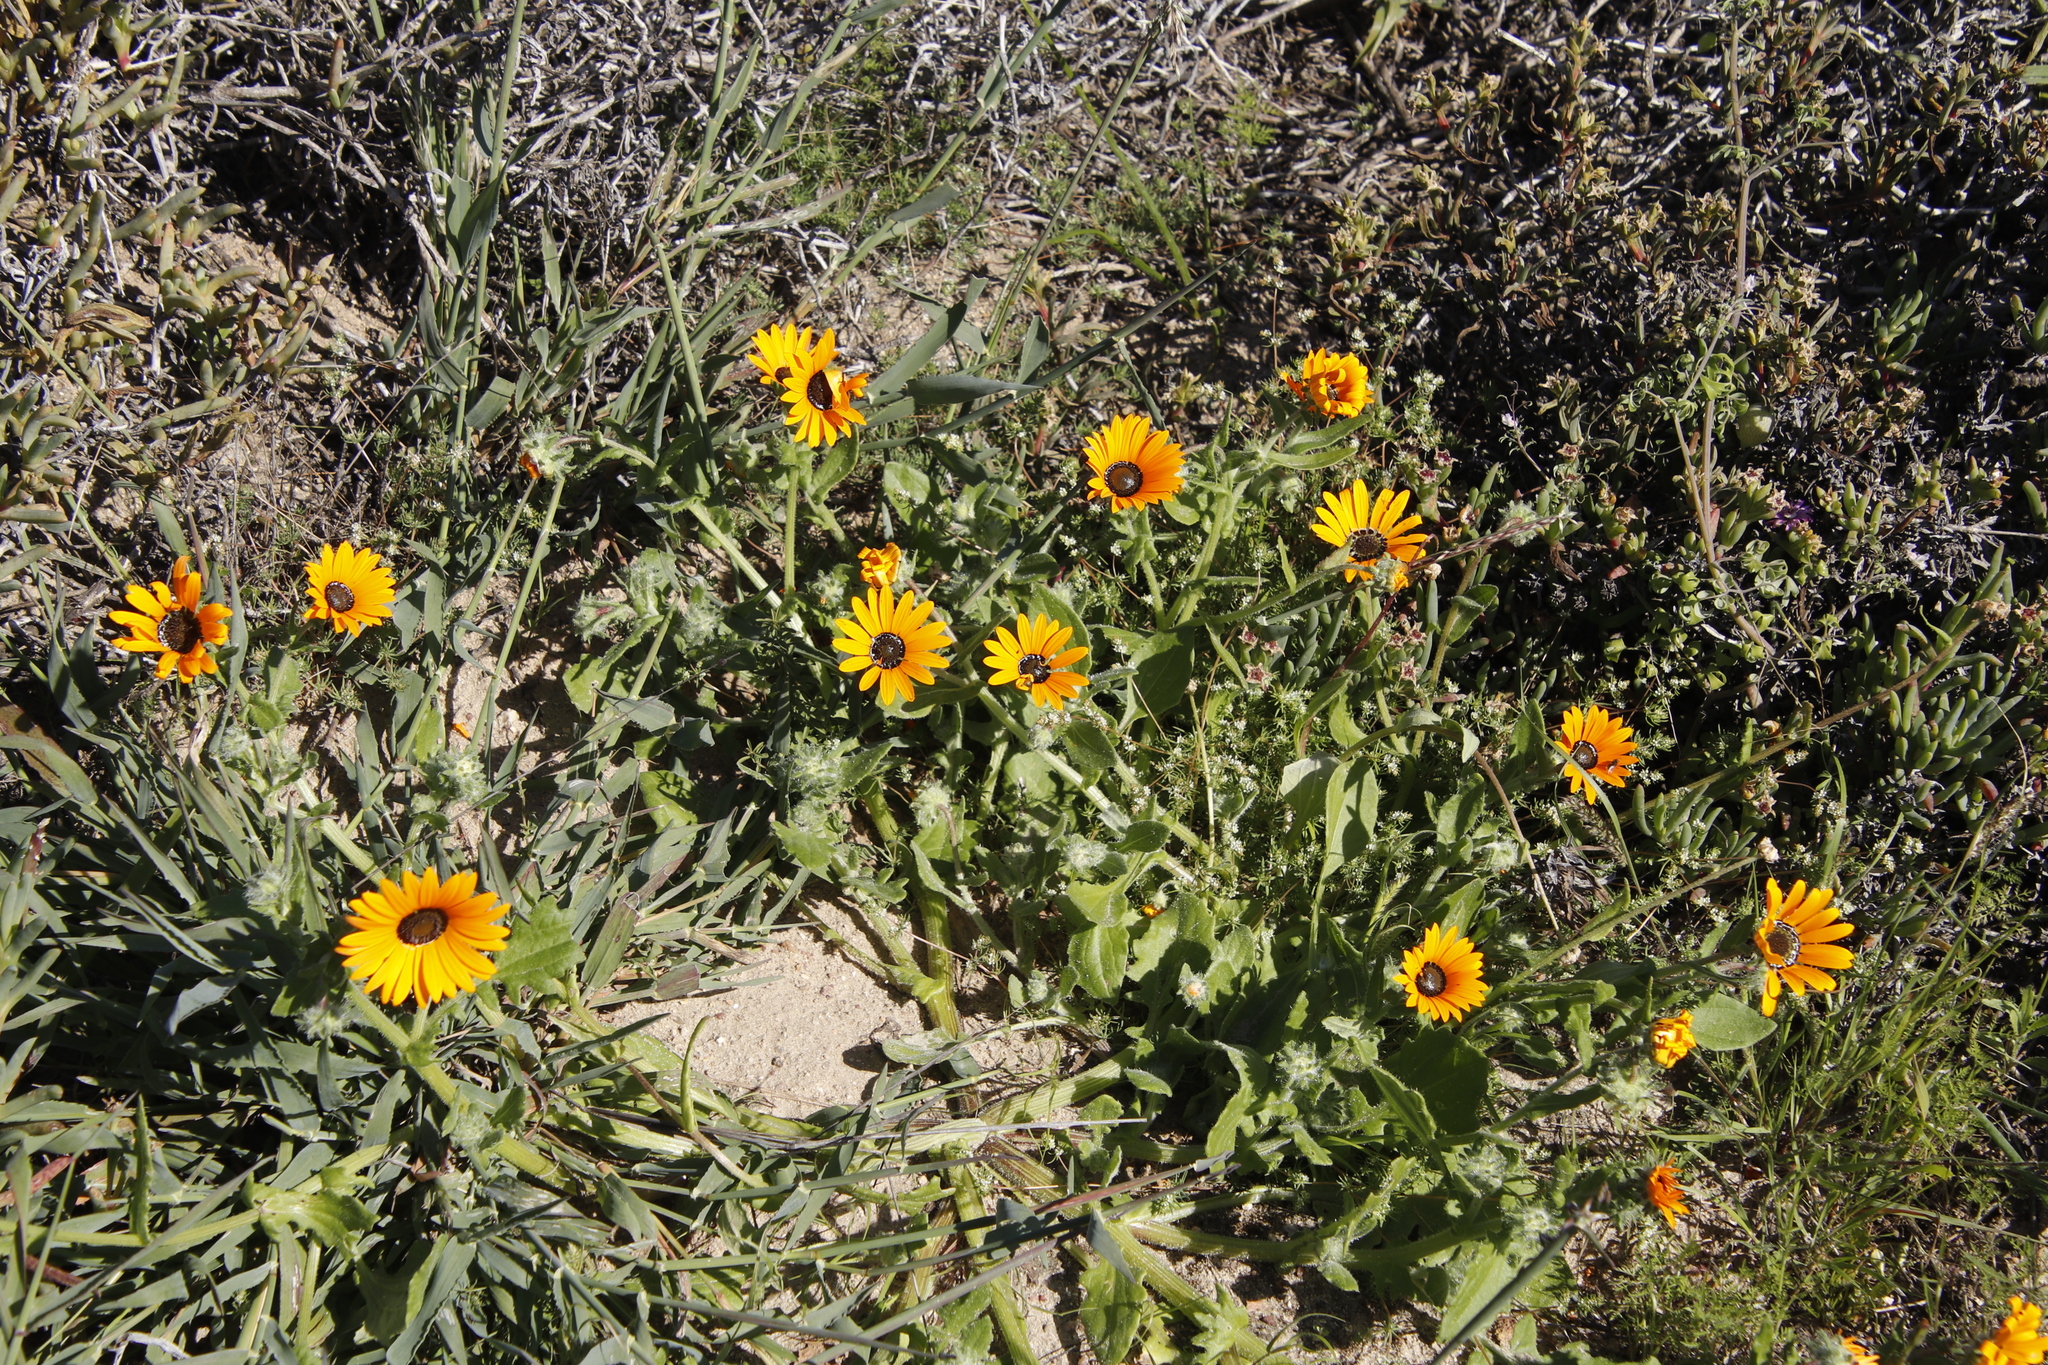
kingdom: Plantae
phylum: Tracheophyta
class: Magnoliopsida
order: Asterales
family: Asteraceae
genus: Arctotis
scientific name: Arctotis hirsuta
